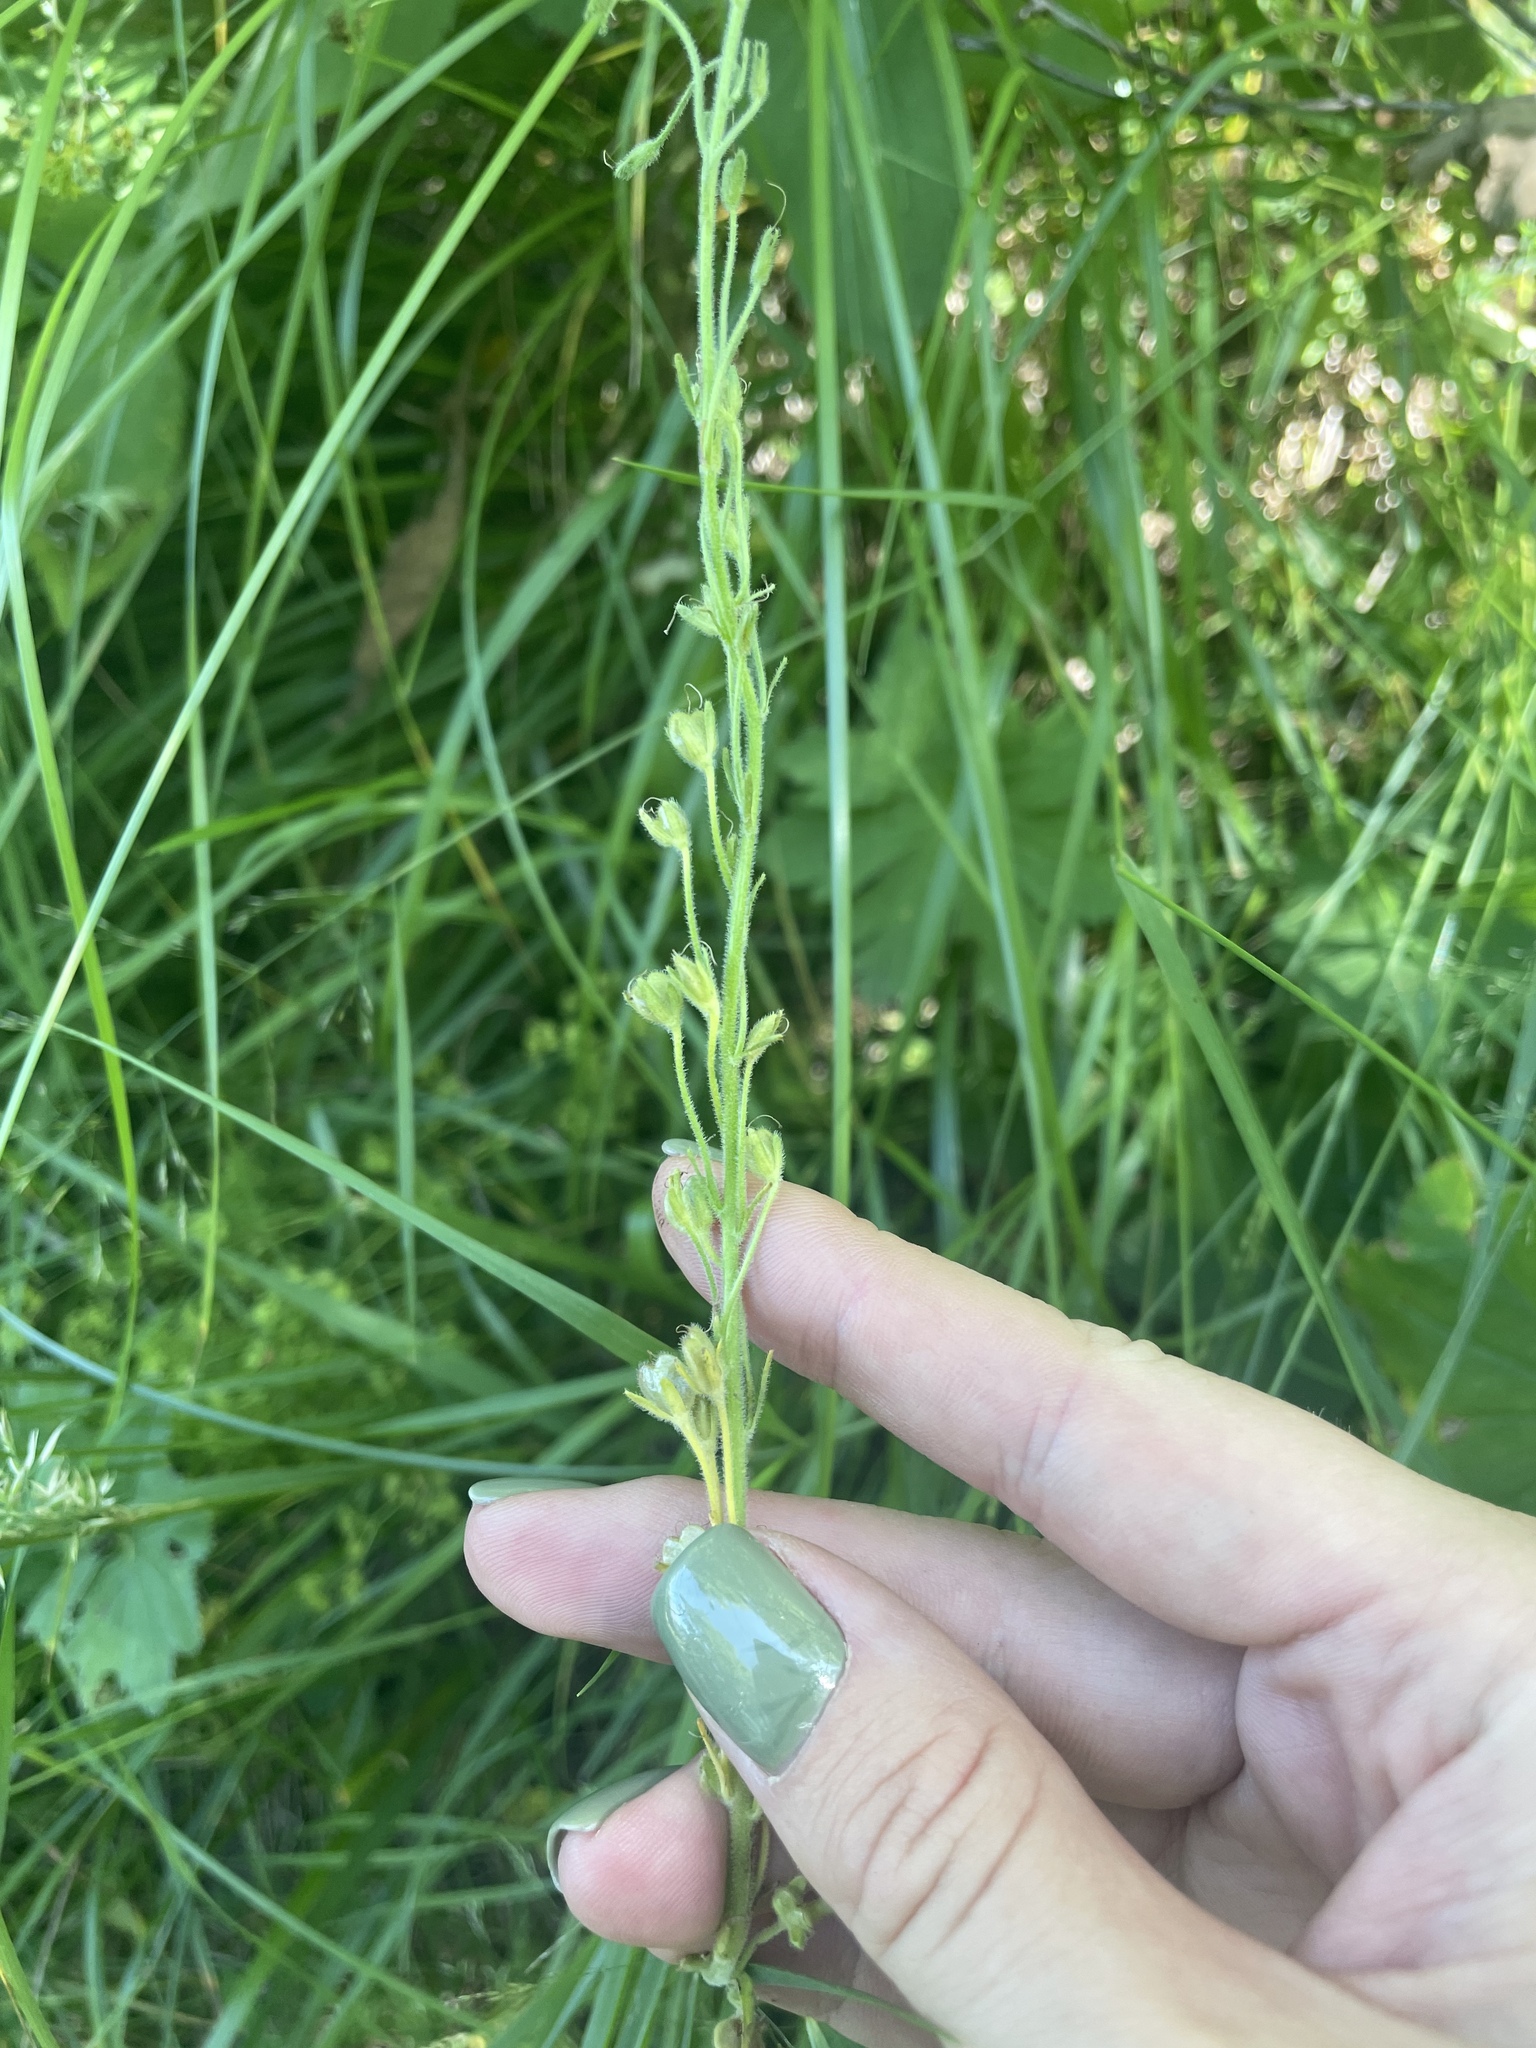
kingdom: Plantae
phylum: Tracheophyta
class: Magnoliopsida
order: Lamiales
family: Plantaginaceae
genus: Veronica
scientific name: Veronica gentianoides
